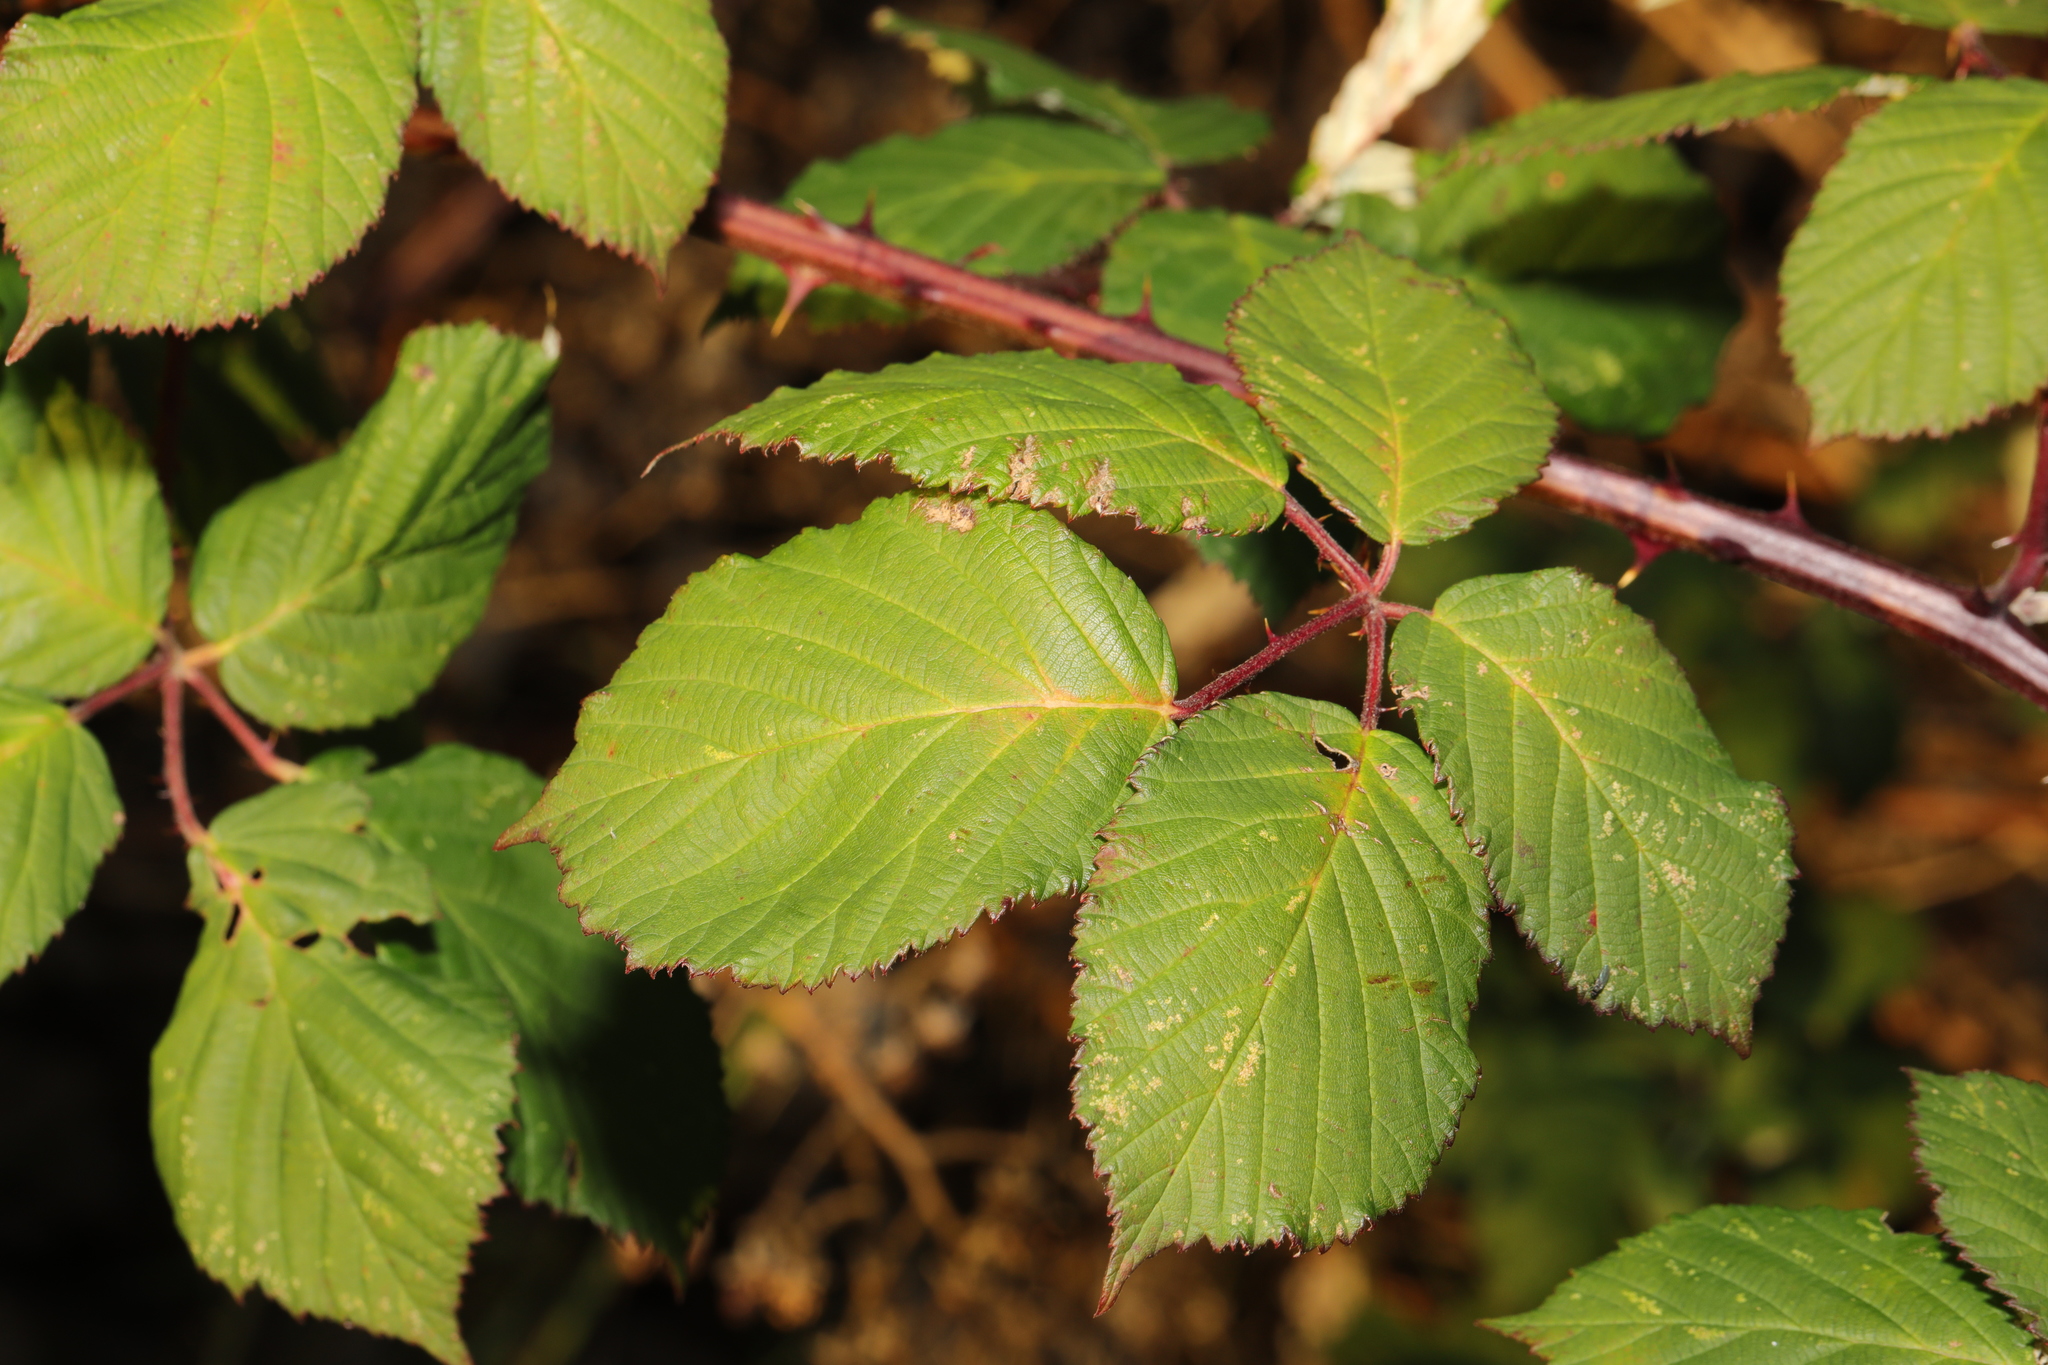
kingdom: Plantae
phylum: Tracheophyta
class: Magnoliopsida
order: Rosales
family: Rosaceae
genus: Rubus
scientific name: Rubus armeniacus
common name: Himalayan blackberry
